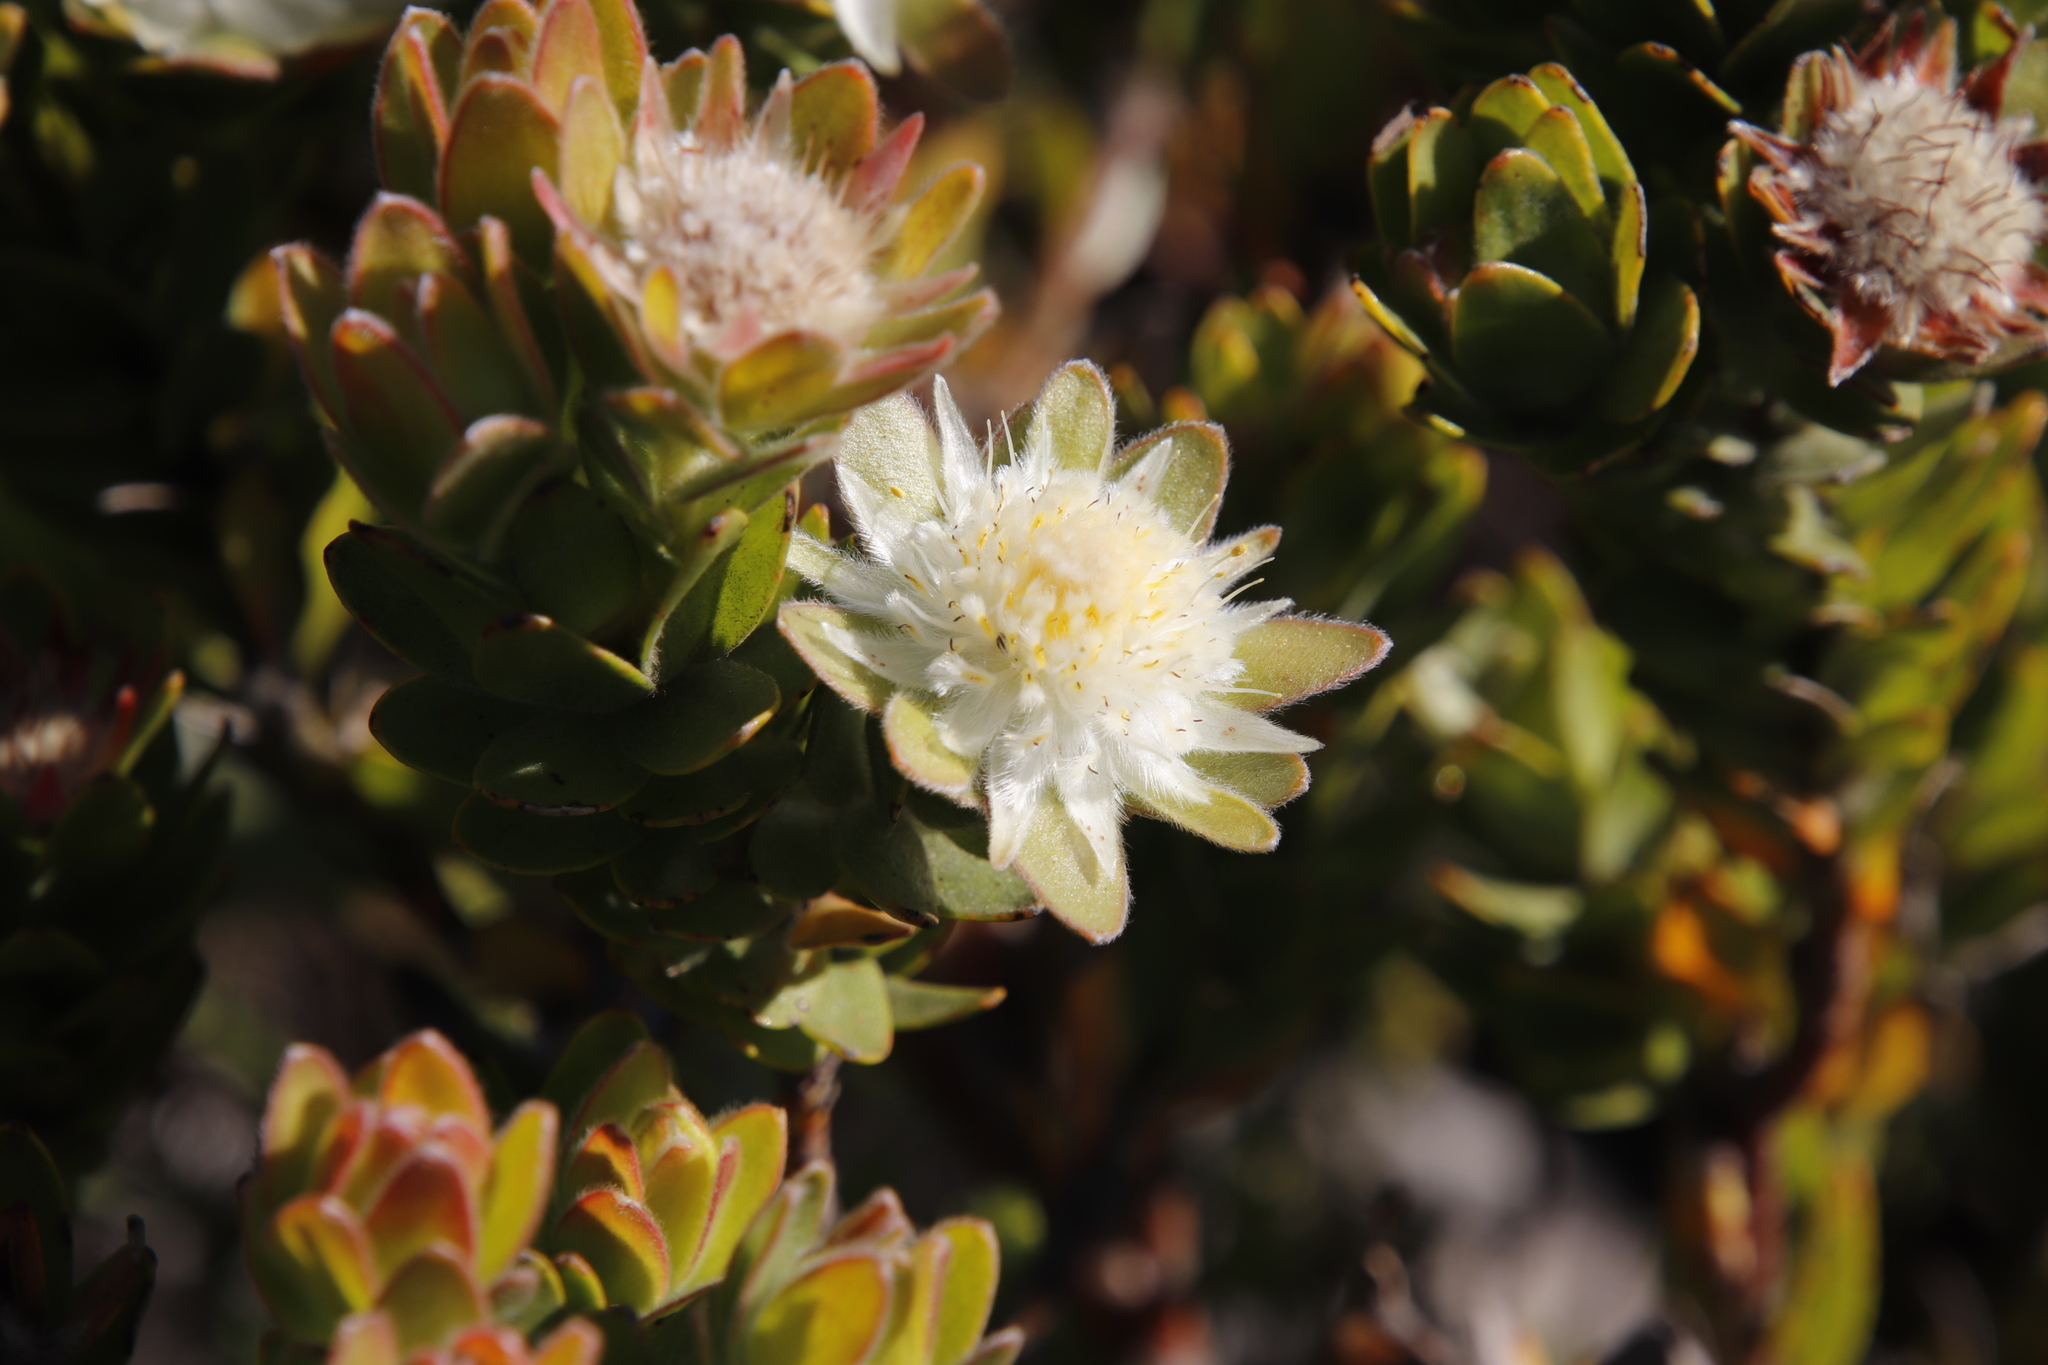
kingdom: Plantae
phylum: Tracheophyta
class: Magnoliopsida
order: Proteales
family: Proteaceae
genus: Diastella
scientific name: Diastella thymelaeoides
